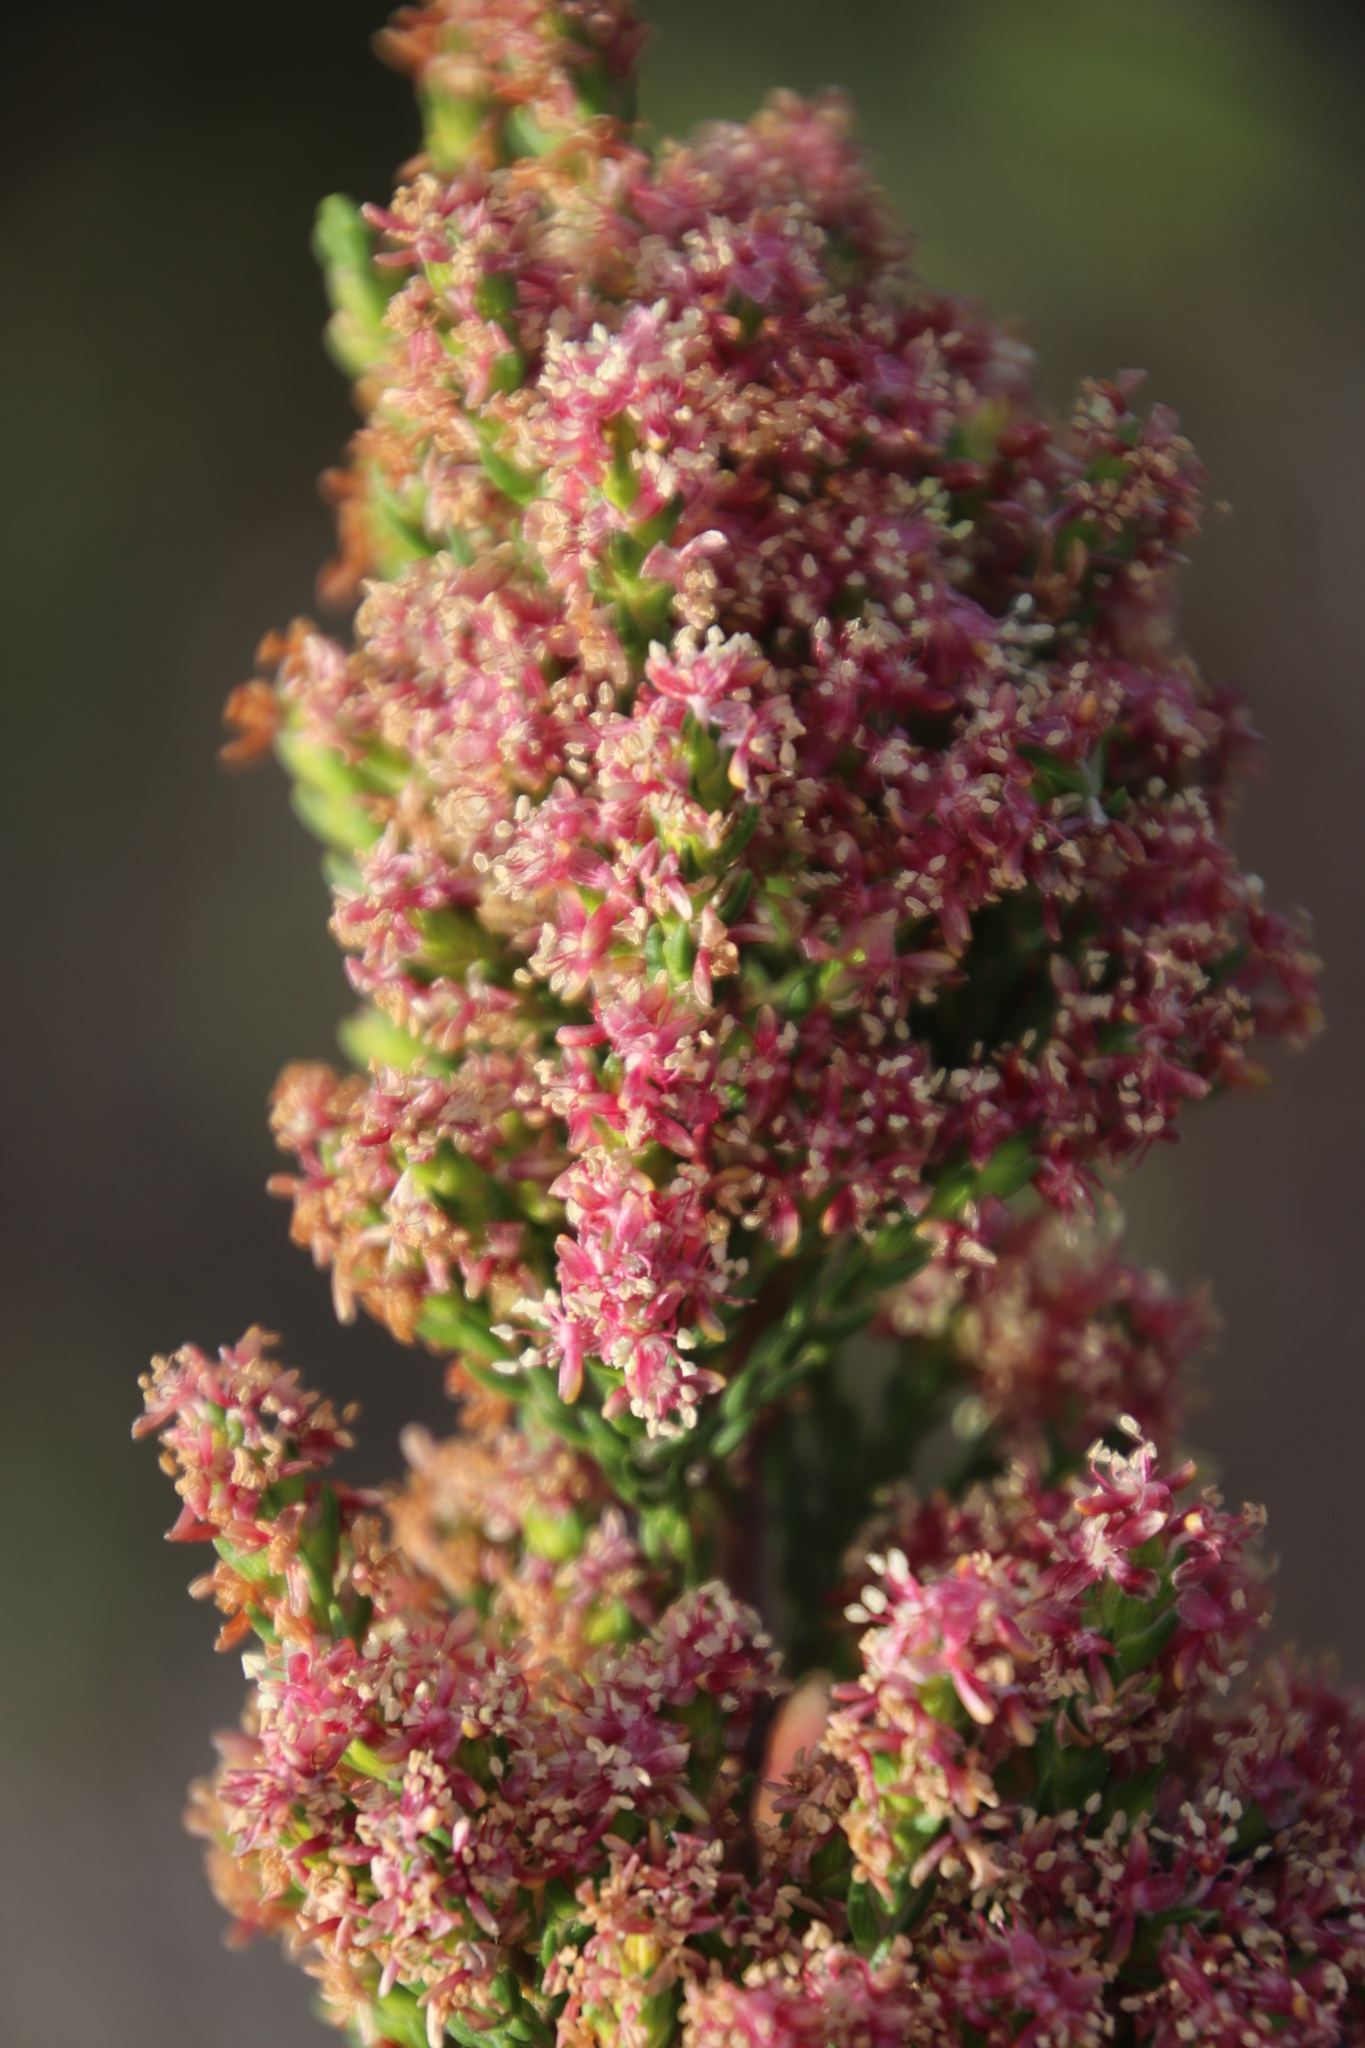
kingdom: Plantae
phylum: Tracheophyta
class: Magnoliopsida
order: Malvales
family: Thymelaeaceae
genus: Passerina
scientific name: Passerina corymbosa
